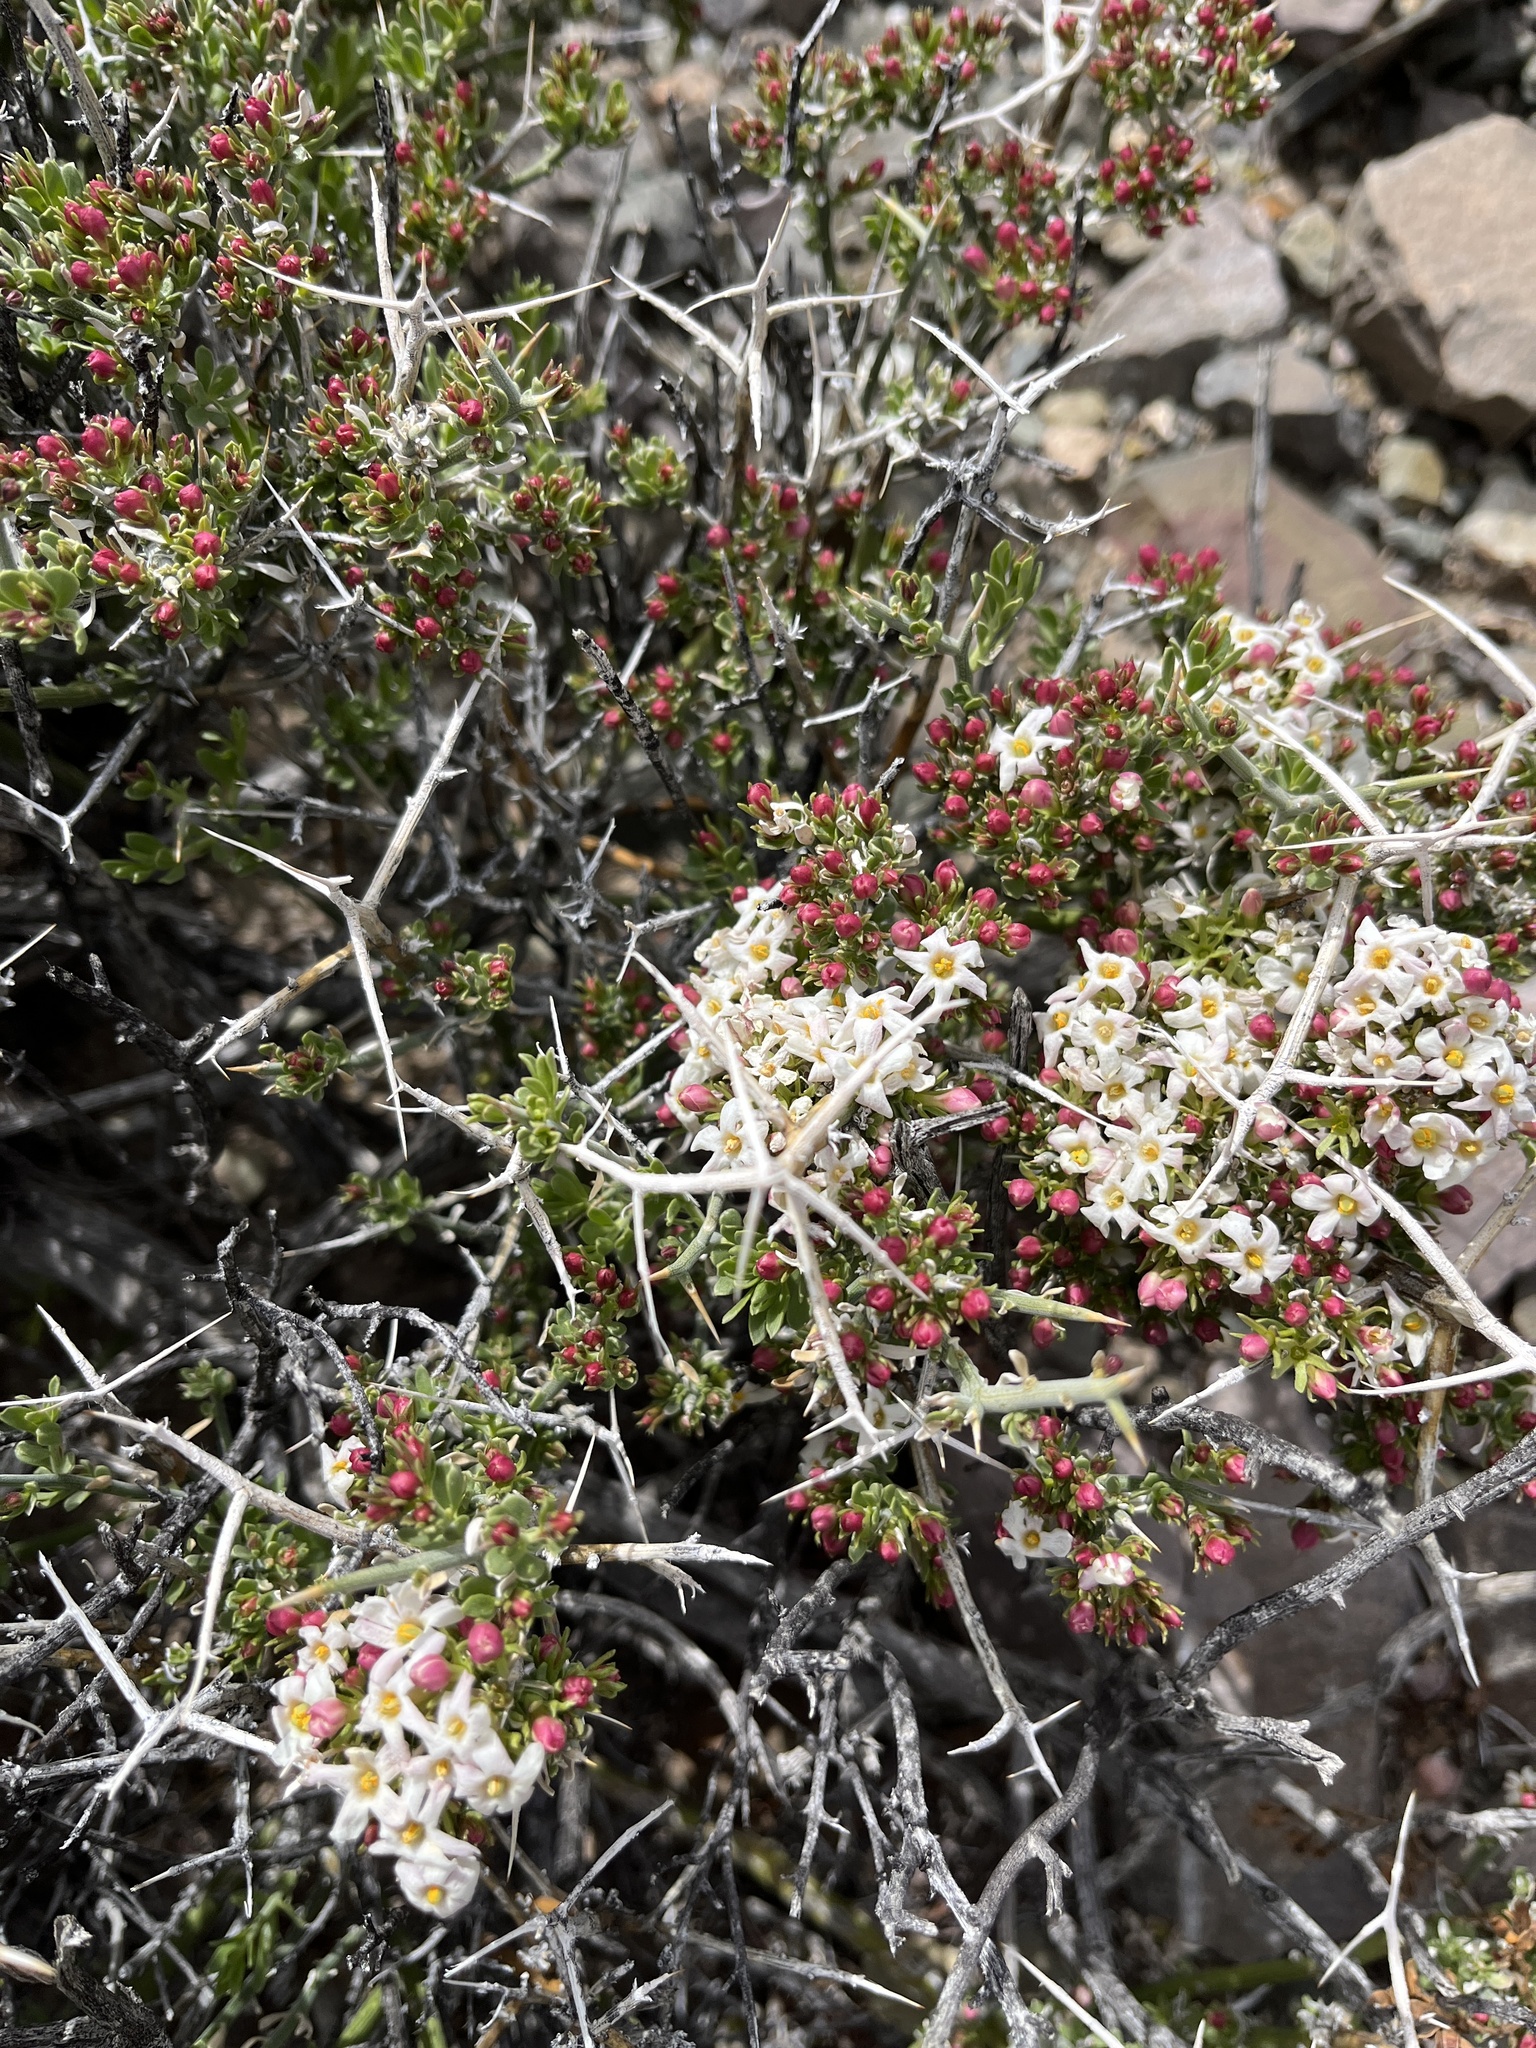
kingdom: Plantae
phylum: Tracheophyta
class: Magnoliopsida
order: Lamiales
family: Oleaceae
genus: Menodora
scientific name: Menodora spinescens
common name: Spiny menodora
